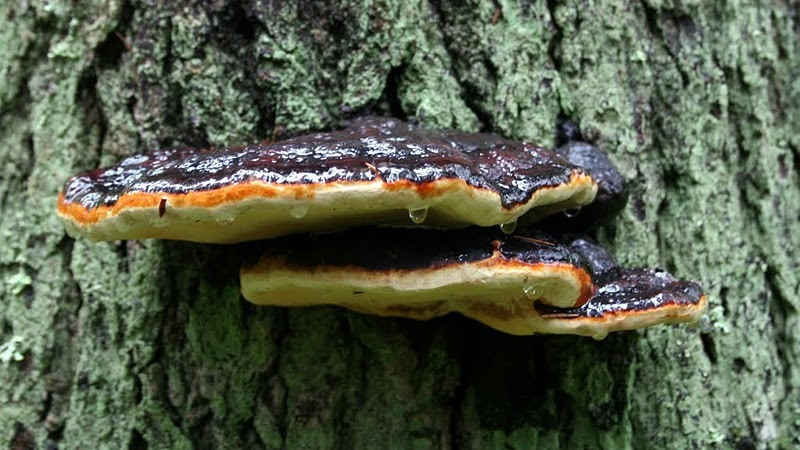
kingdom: Fungi
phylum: Basidiomycota
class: Agaricomycetes
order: Polyporales
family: Fomitopsidaceae
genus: Fomitopsis
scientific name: Fomitopsis pinicola
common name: Red-belted bracket
